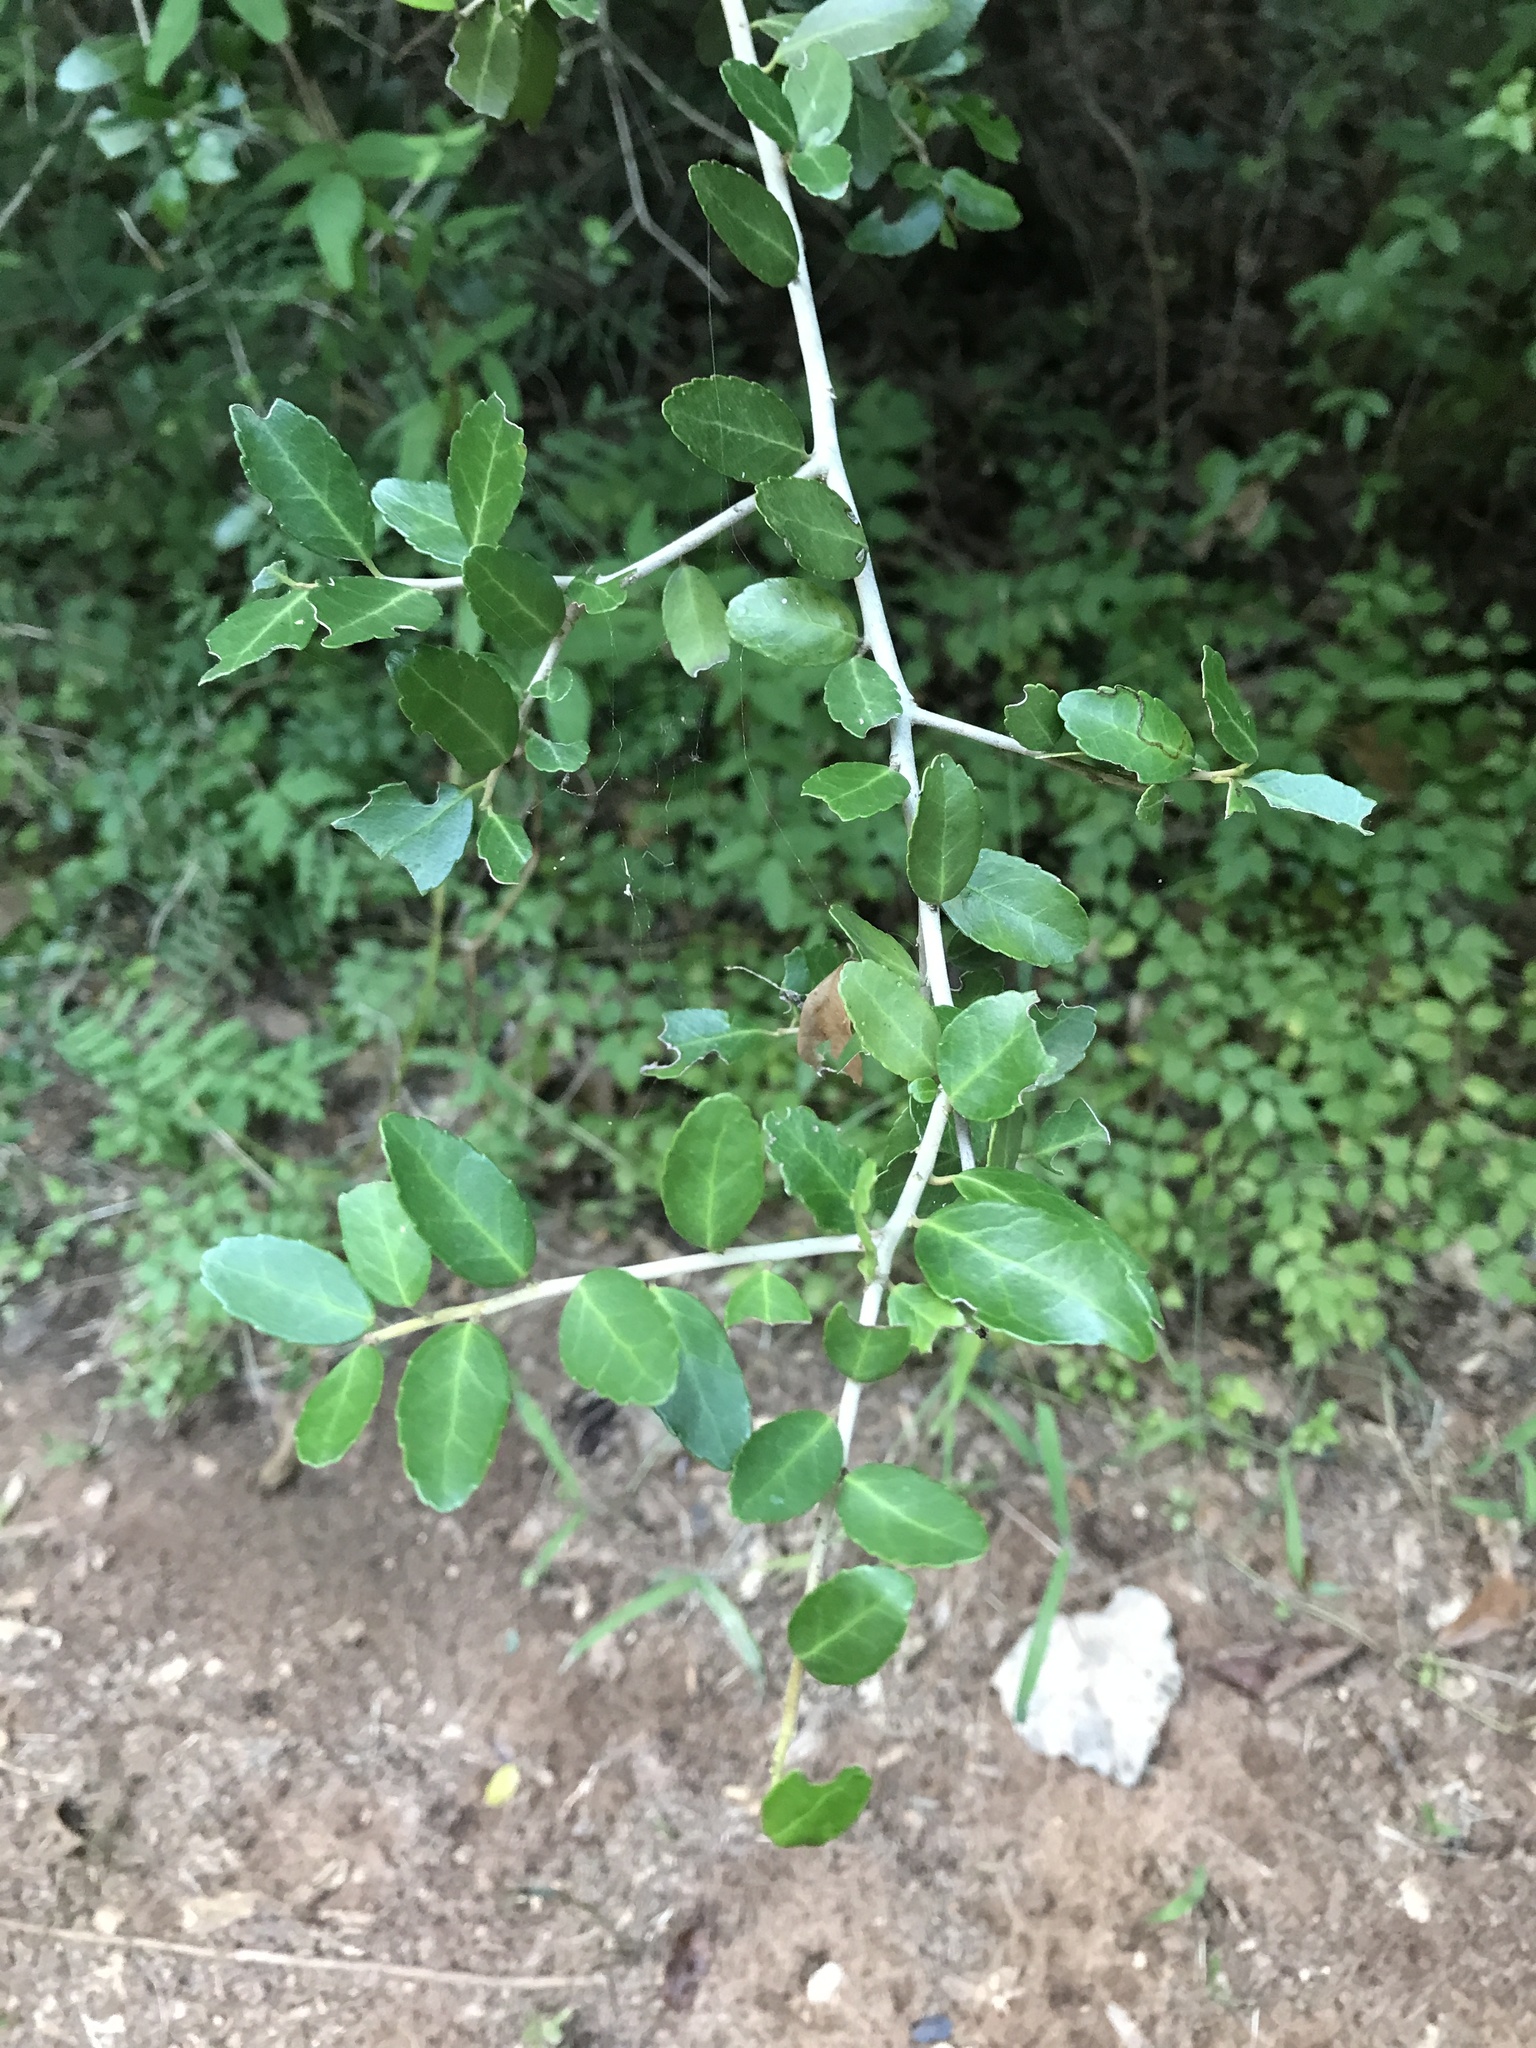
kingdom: Plantae
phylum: Tracheophyta
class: Magnoliopsida
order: Aquifoliales
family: Aquifoliaceae
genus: Ilex
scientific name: Ilex vomitoria
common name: Yaupon holly
